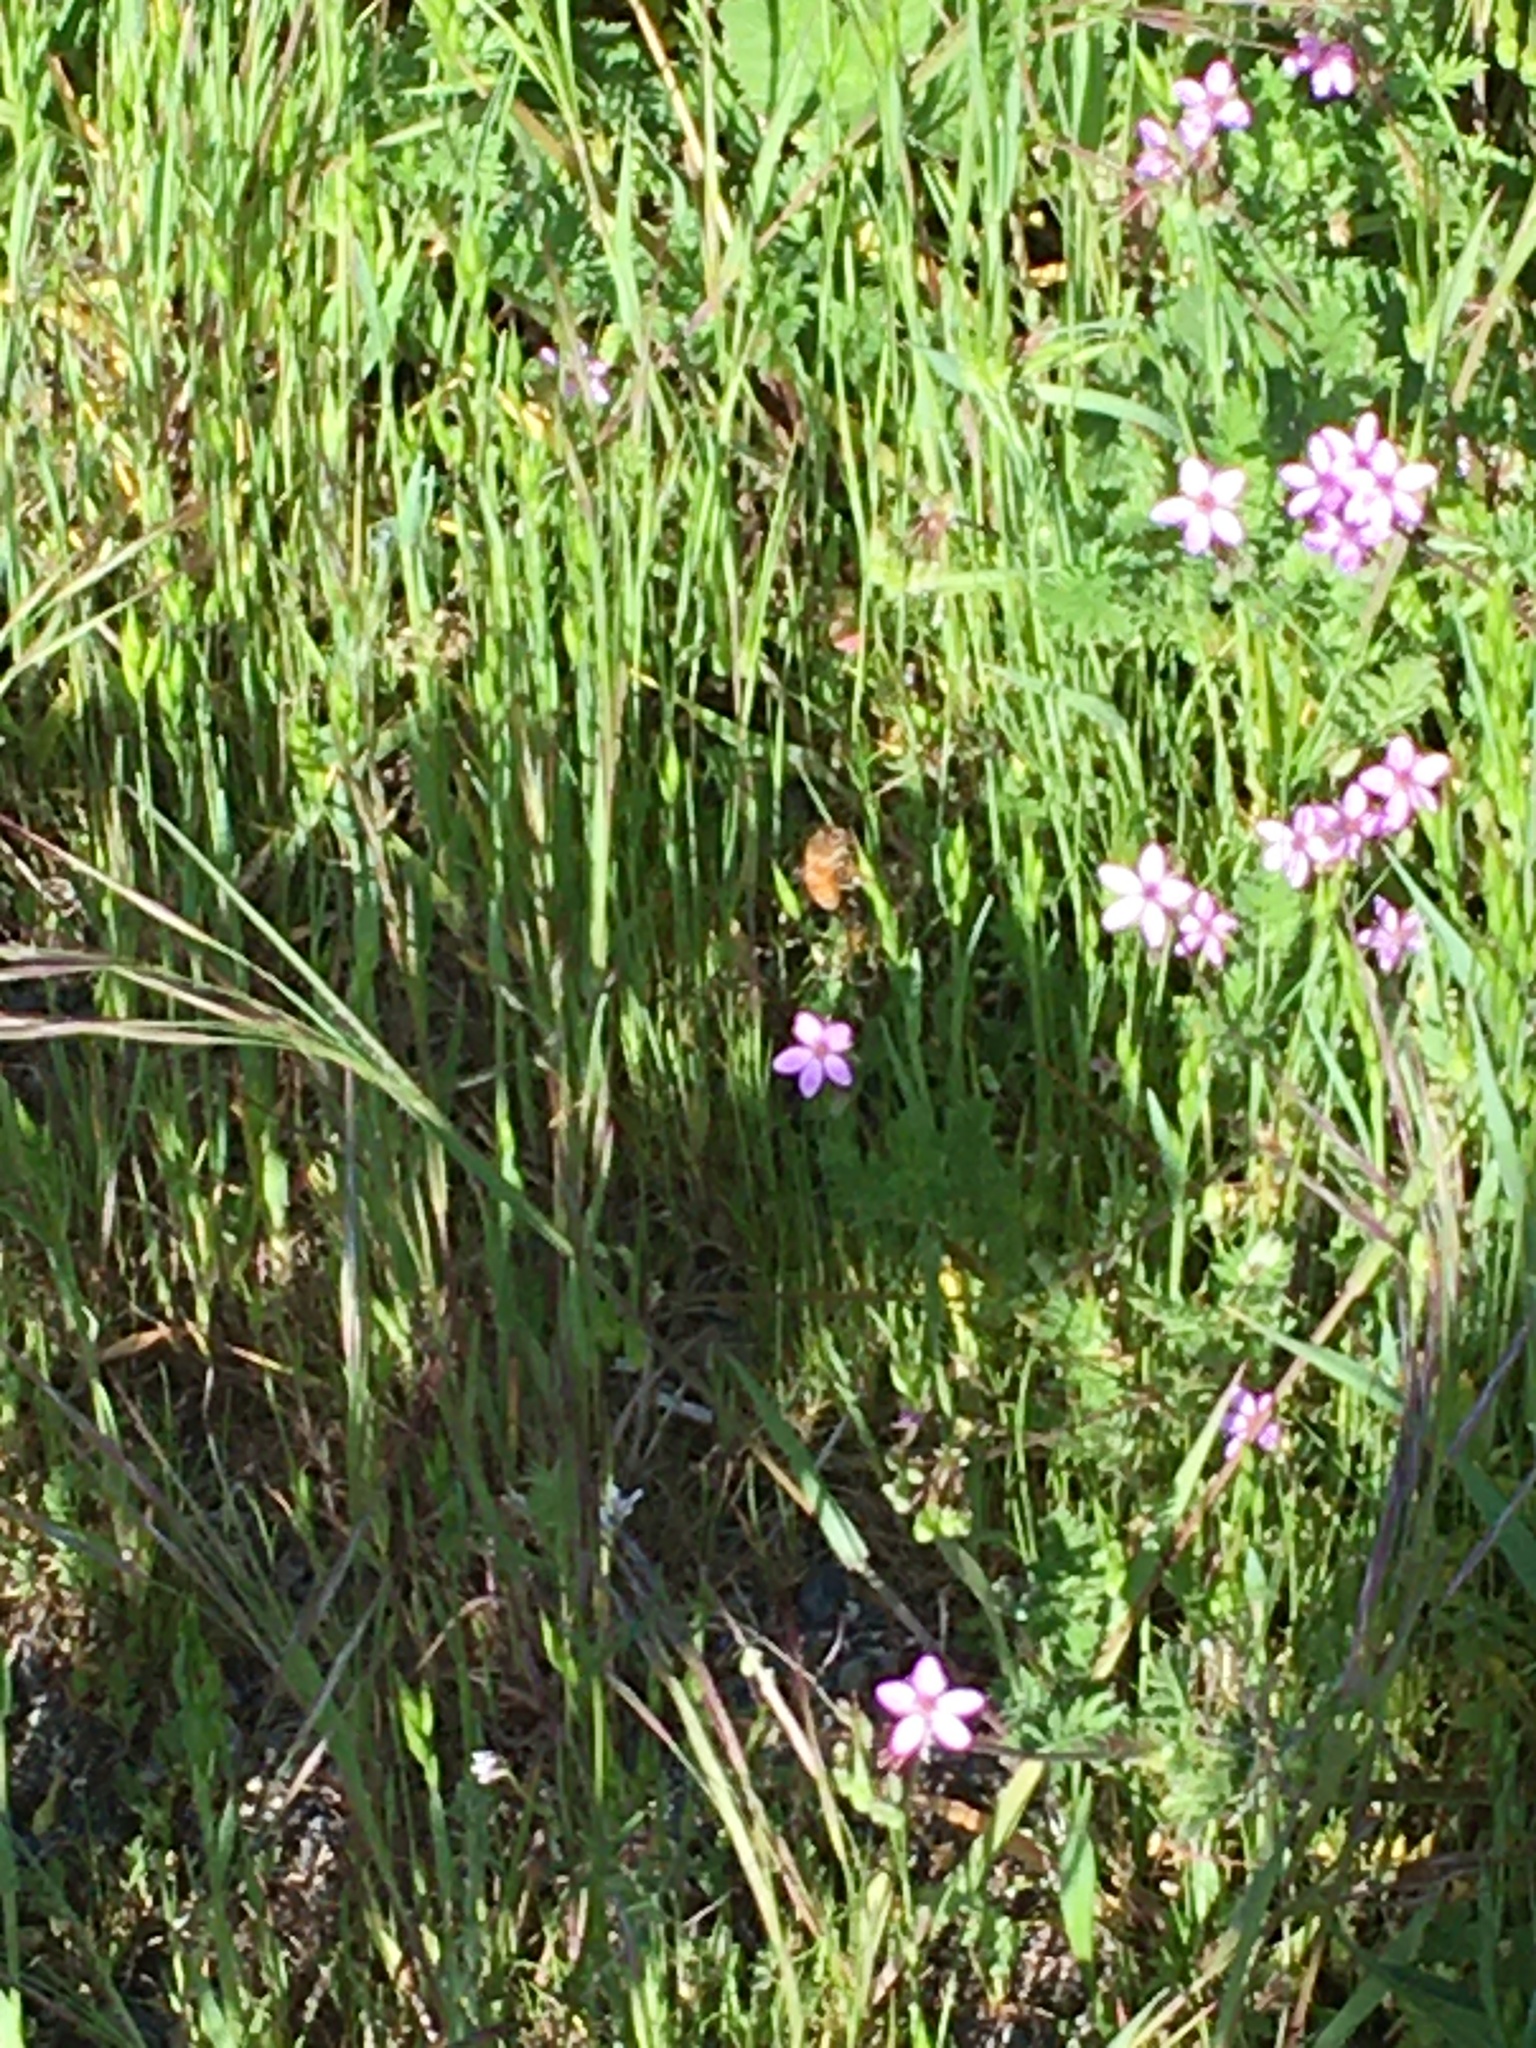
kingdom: Animalia
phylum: Arthropoda
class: Insecta
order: Hymenoptera
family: Apidae
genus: Apis
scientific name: Apis mellifera
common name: Honey bee
